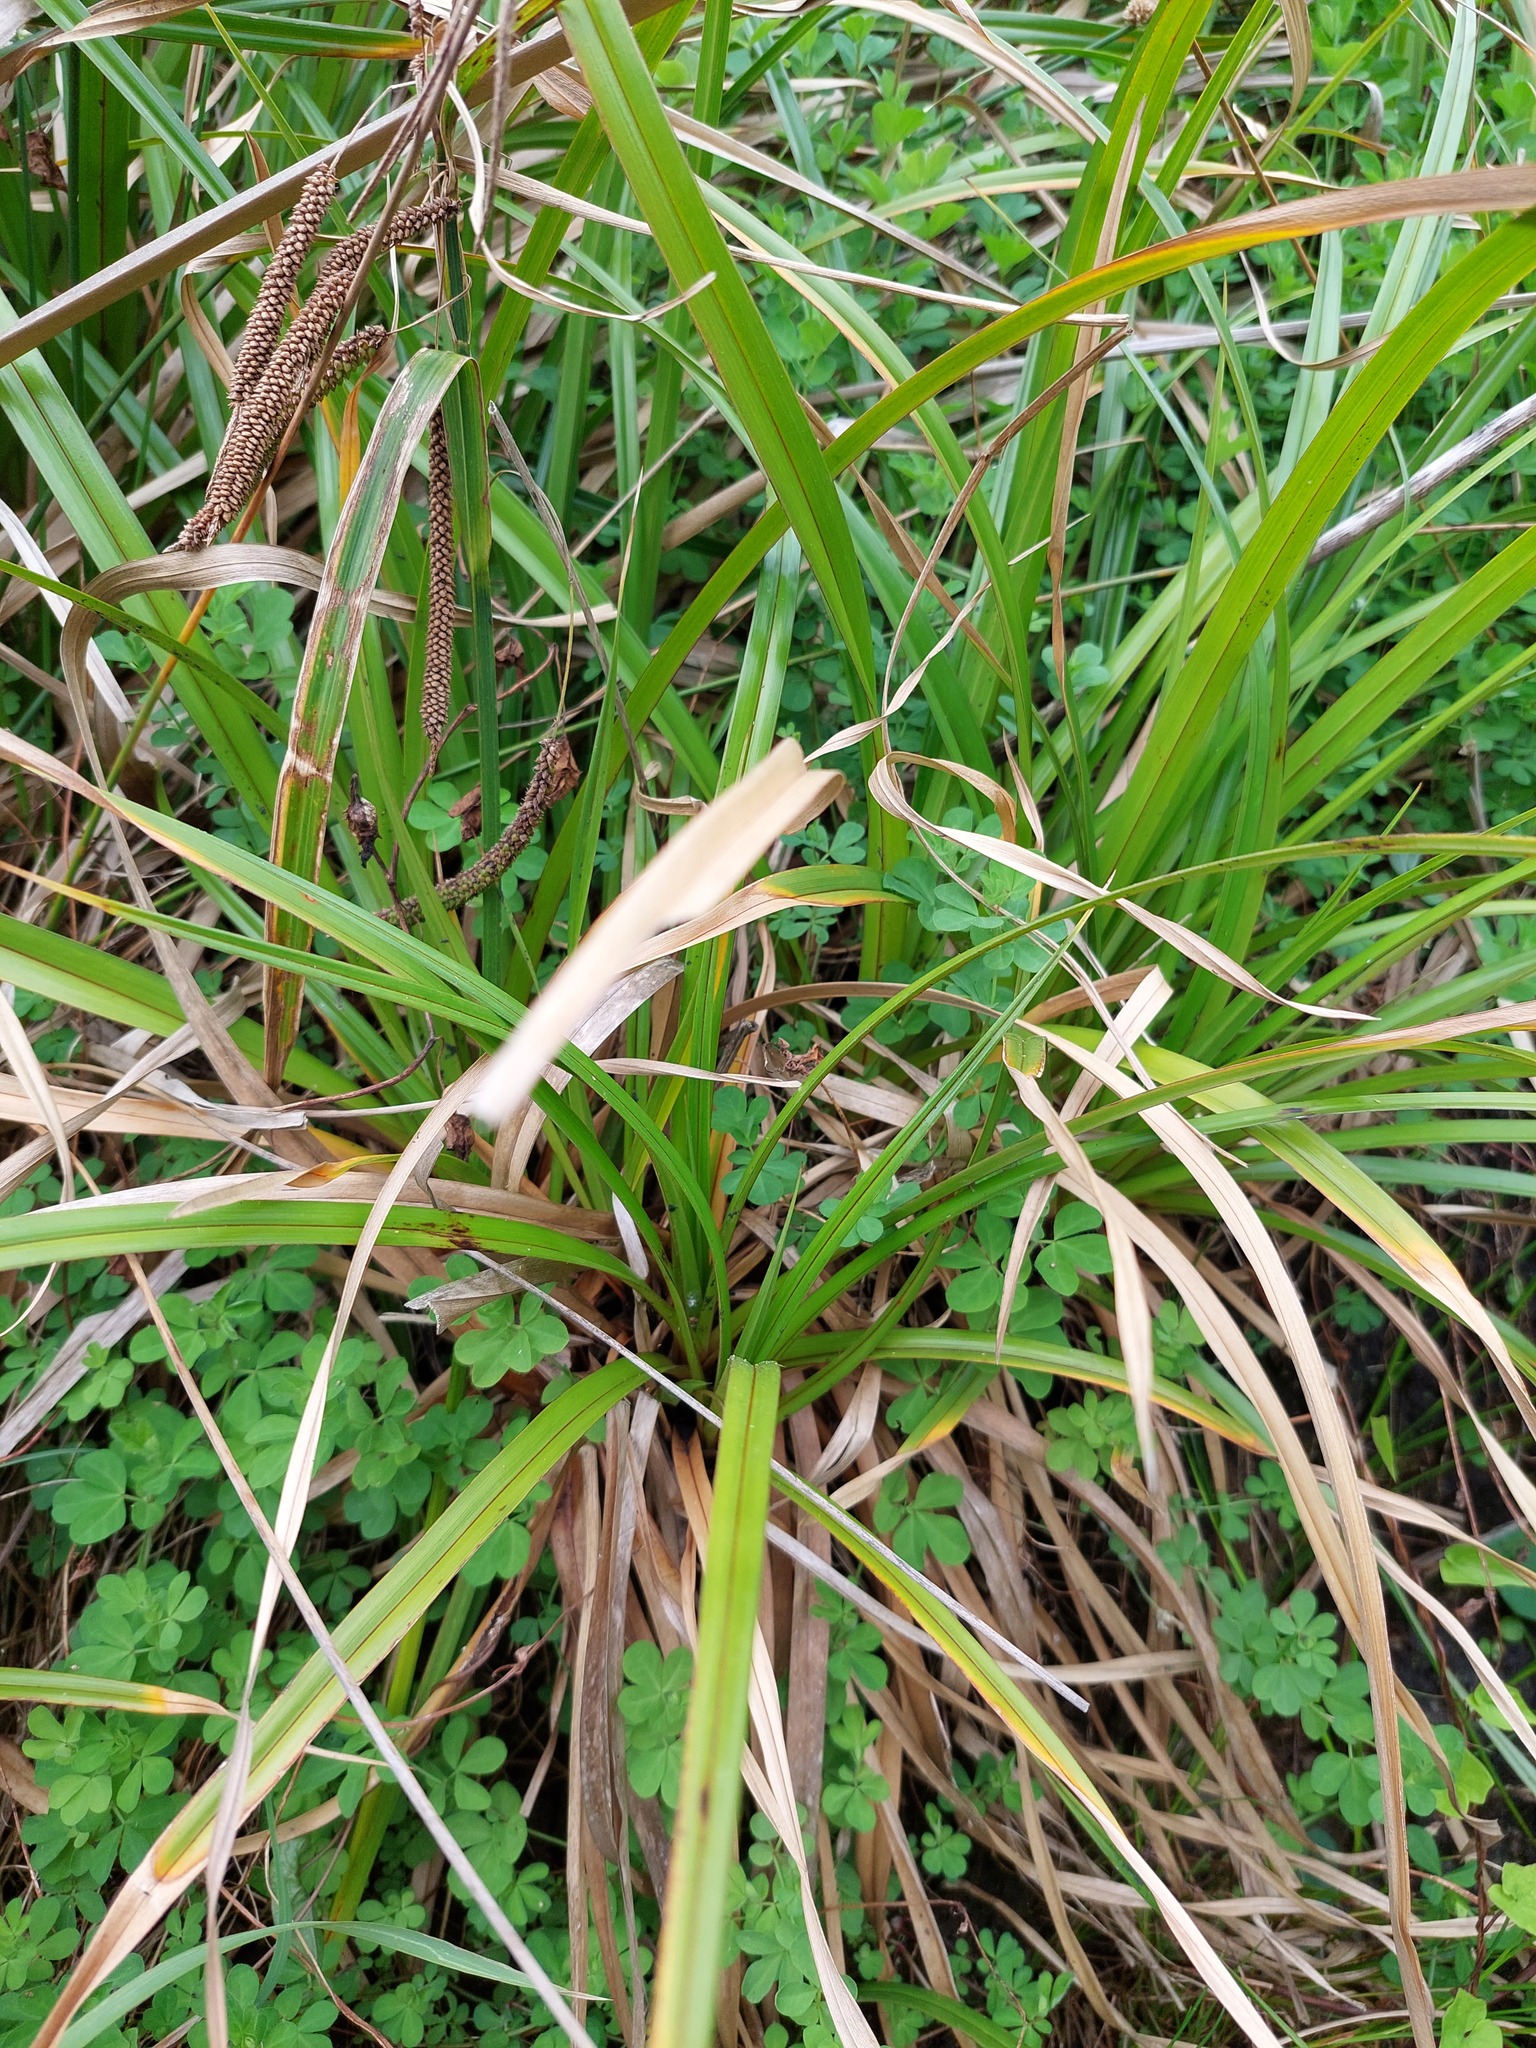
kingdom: Plantae
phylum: Tracheophyta
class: Liliopsida
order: Poales
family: Cyperaceae
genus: Carex
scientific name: Carex geminata
